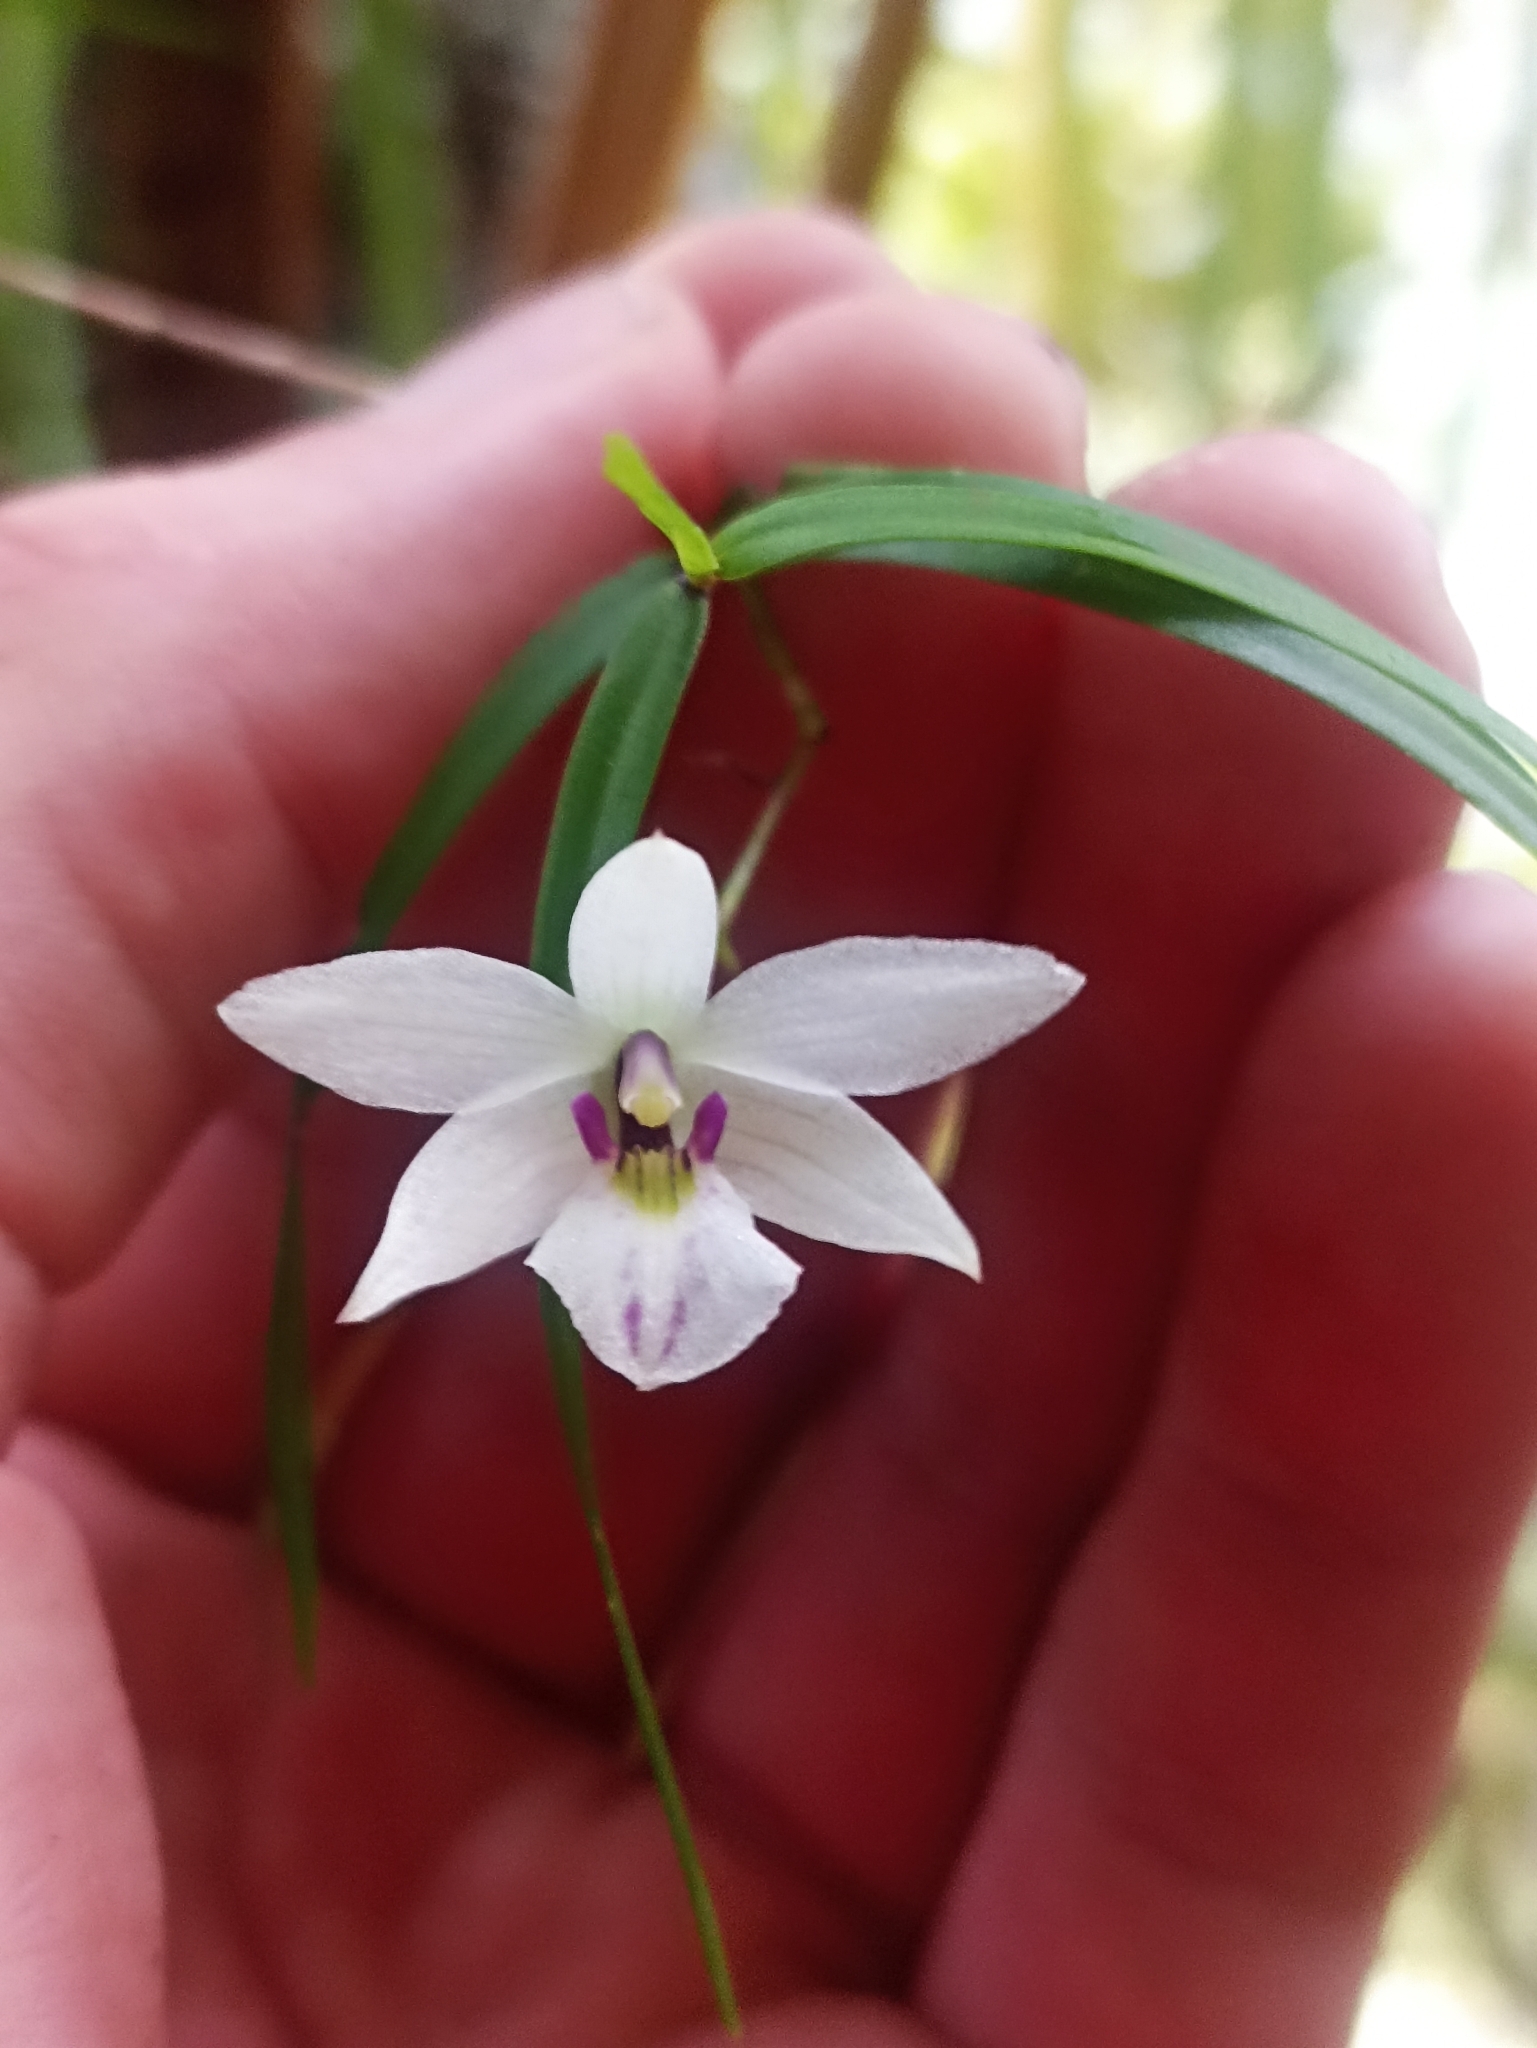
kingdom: Plantae
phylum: Tracheophyta
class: Liliopsida
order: Asparagales
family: Orchidaceae
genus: Dendrobium
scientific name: Dendrobium cunninghamii
